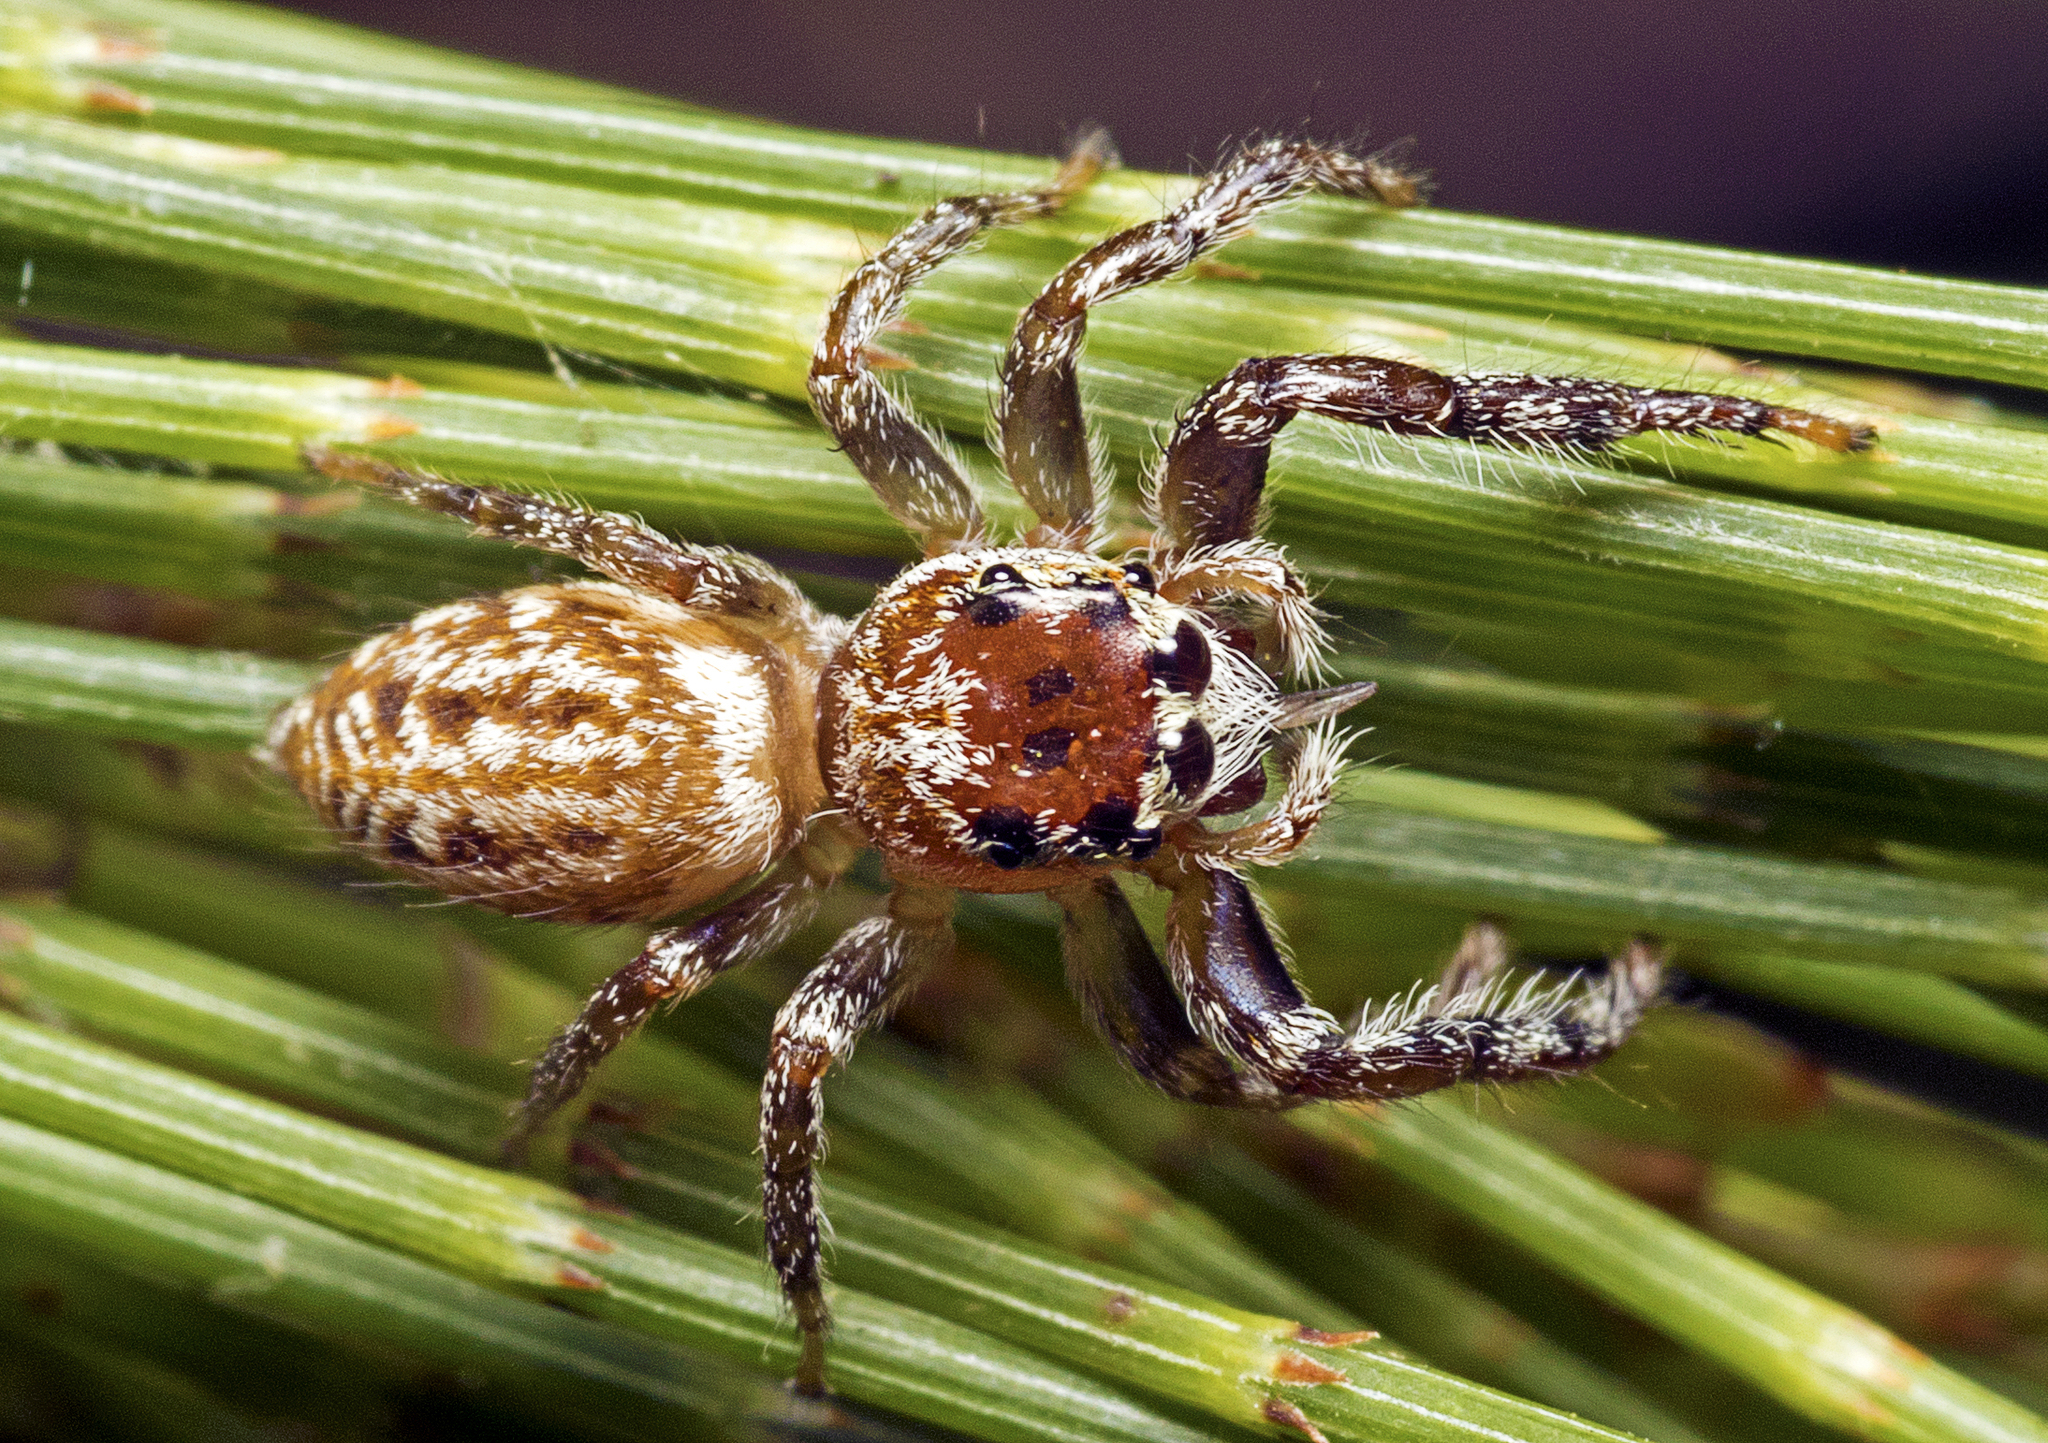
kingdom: Animalia
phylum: Arthropoda
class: Arachnida
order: Araneae
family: Salticidae
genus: Opisthoncus
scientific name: Opisthoncus serratofasciatus
